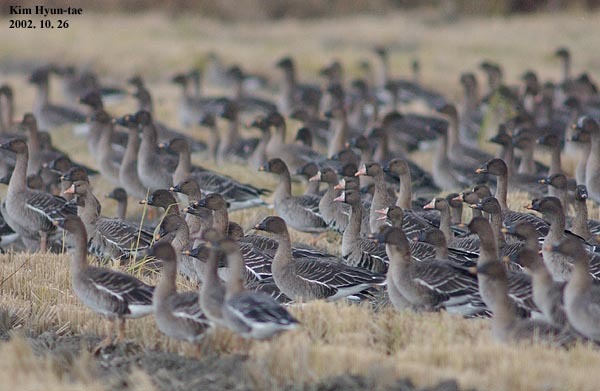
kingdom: Animalia
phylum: Chordata
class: Aves
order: Anseriformes
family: Anatidae
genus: Anser
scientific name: Anser albifrons
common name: Greater white-fronted goose
